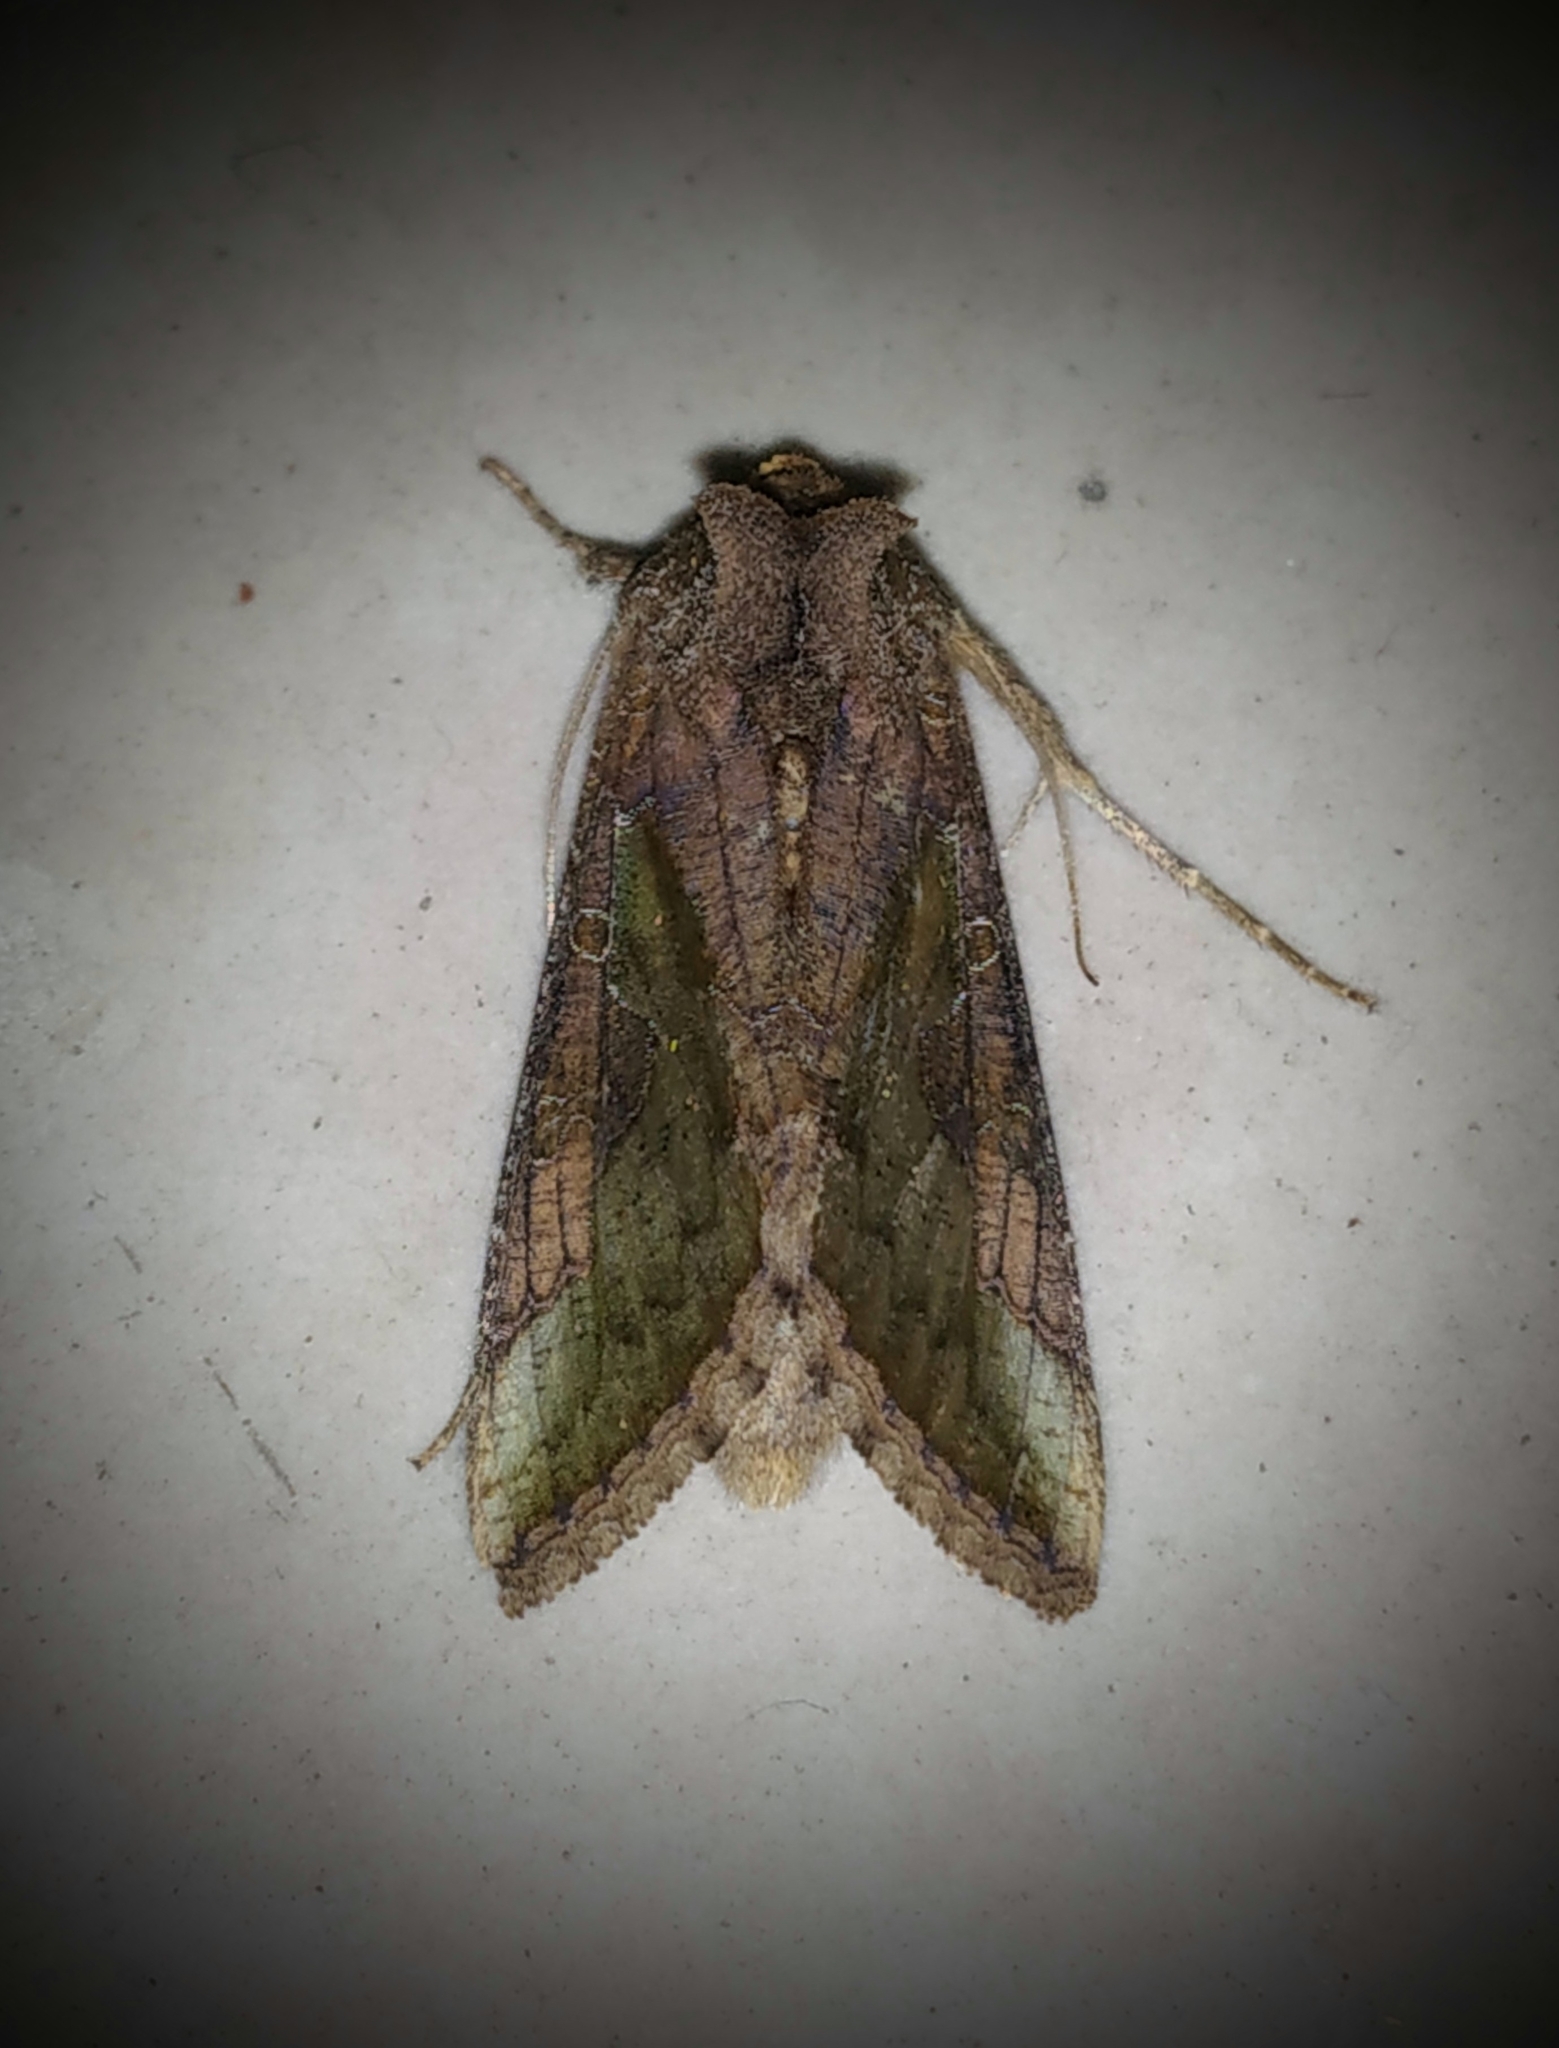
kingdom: Animalia
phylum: Arthropoda
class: Insecta
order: Lepidoptera
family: Noctuidae
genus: Thysanoplusia
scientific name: Thysanoplusia orichalcea
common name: Slender burnished brass, golden plusia
